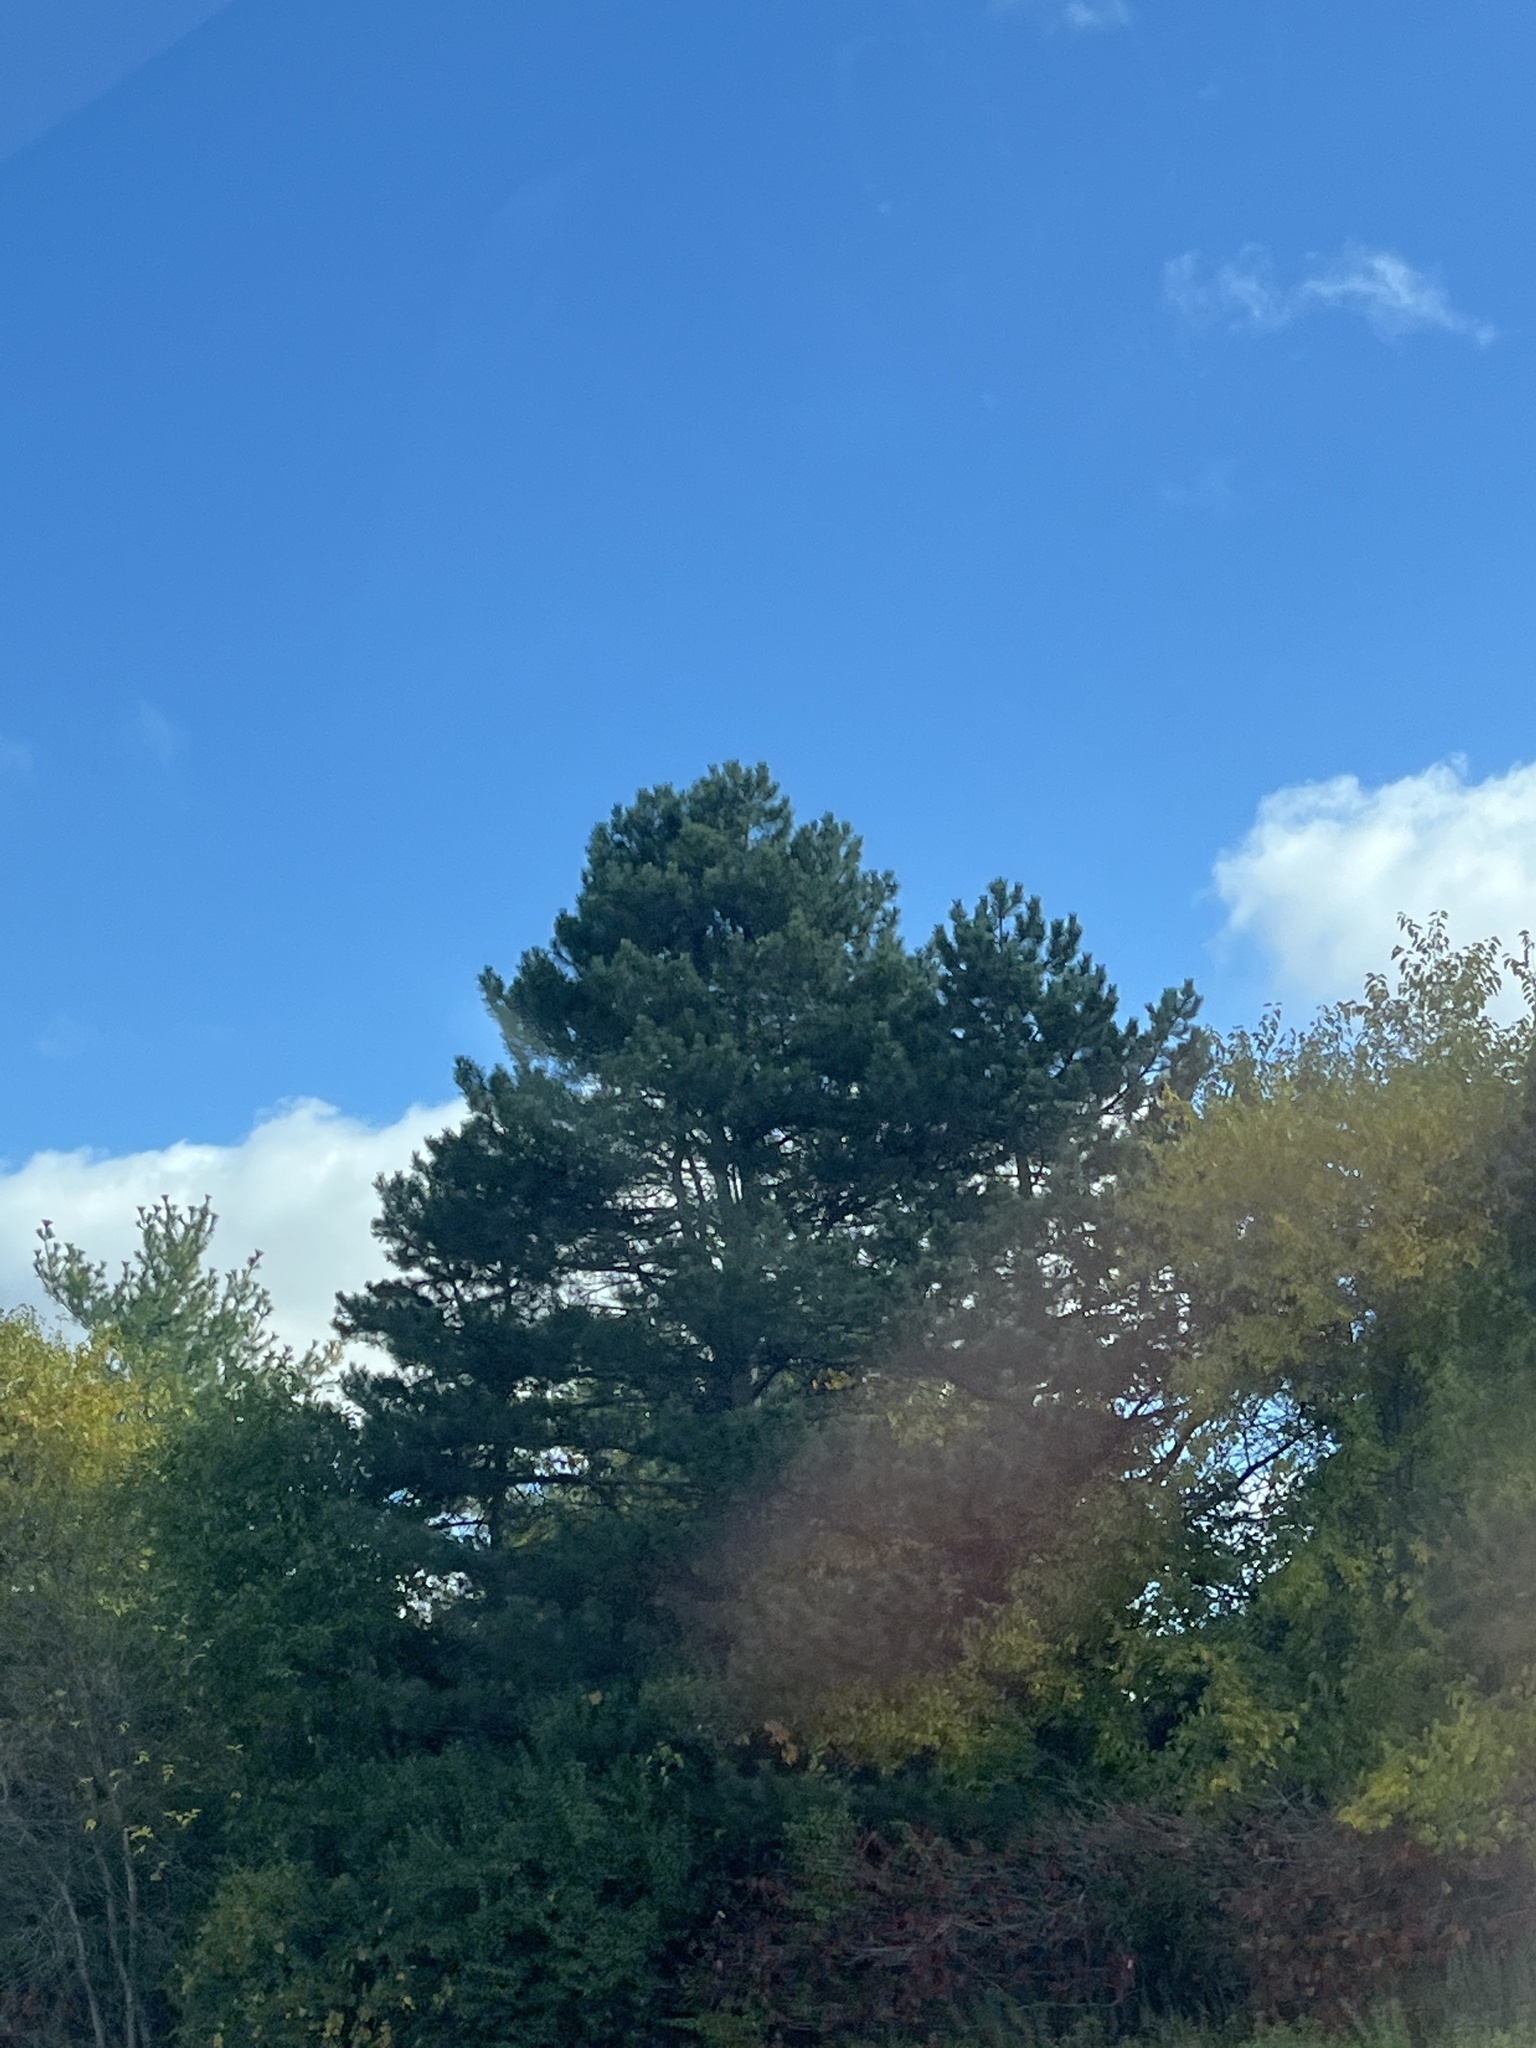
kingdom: Plantae
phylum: Tracheophyta
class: Pinopsida
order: Pinales
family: Pinaceae
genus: Pinus
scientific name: Pinus strobus
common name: Weymouth pine
